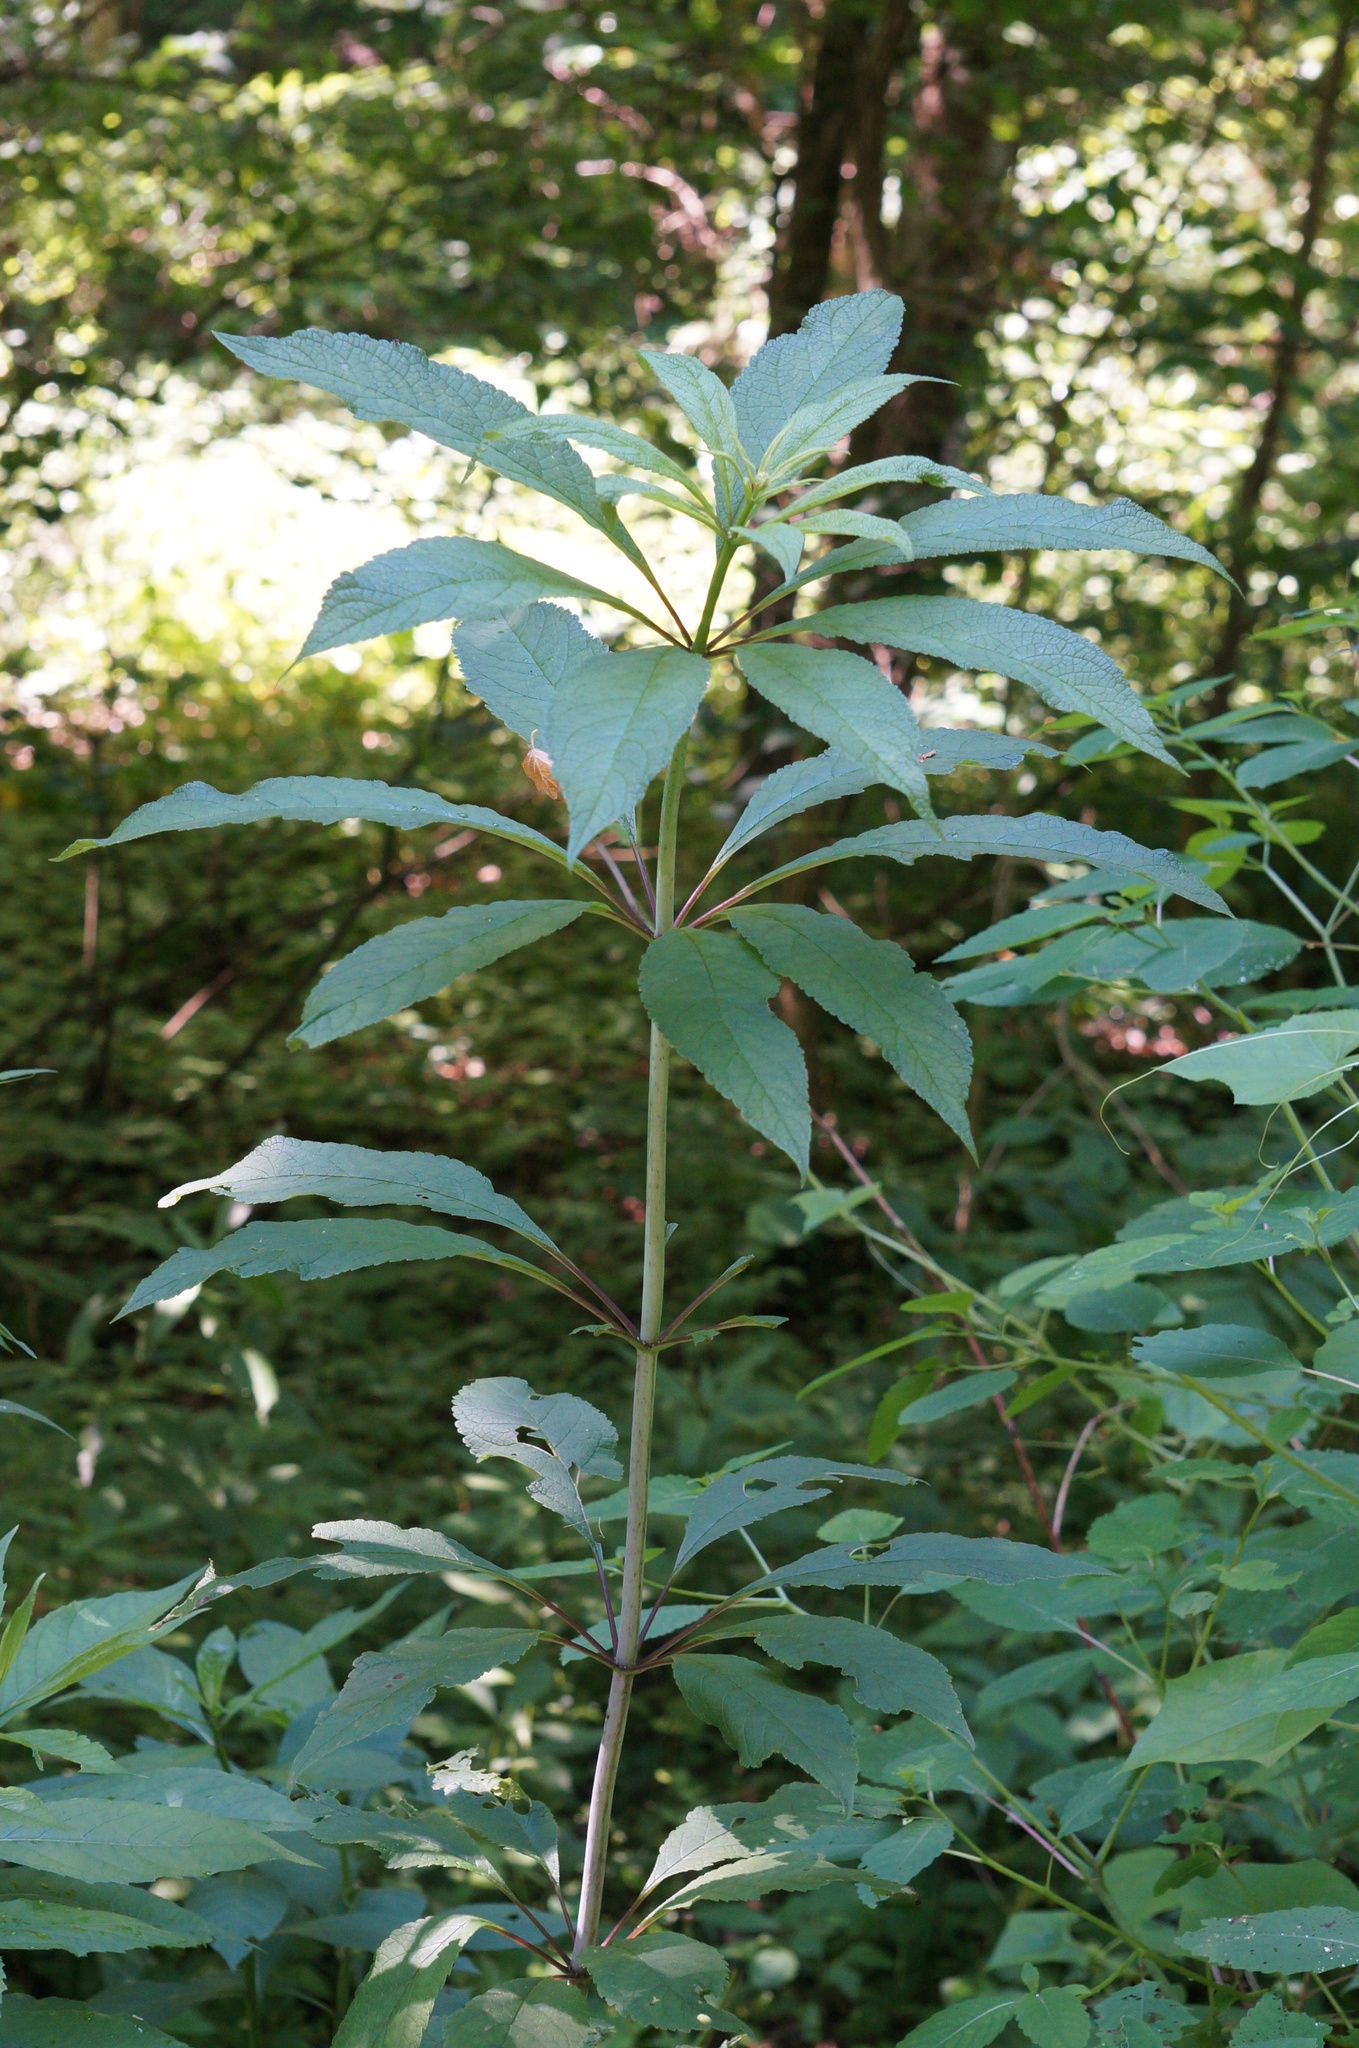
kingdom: Plantae
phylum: Tracheophyta
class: Magnoliopsida
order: Asterales
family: Asteraceae
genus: Eutrochium
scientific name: Eutrochium fistulosum
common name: Trumpetweed
